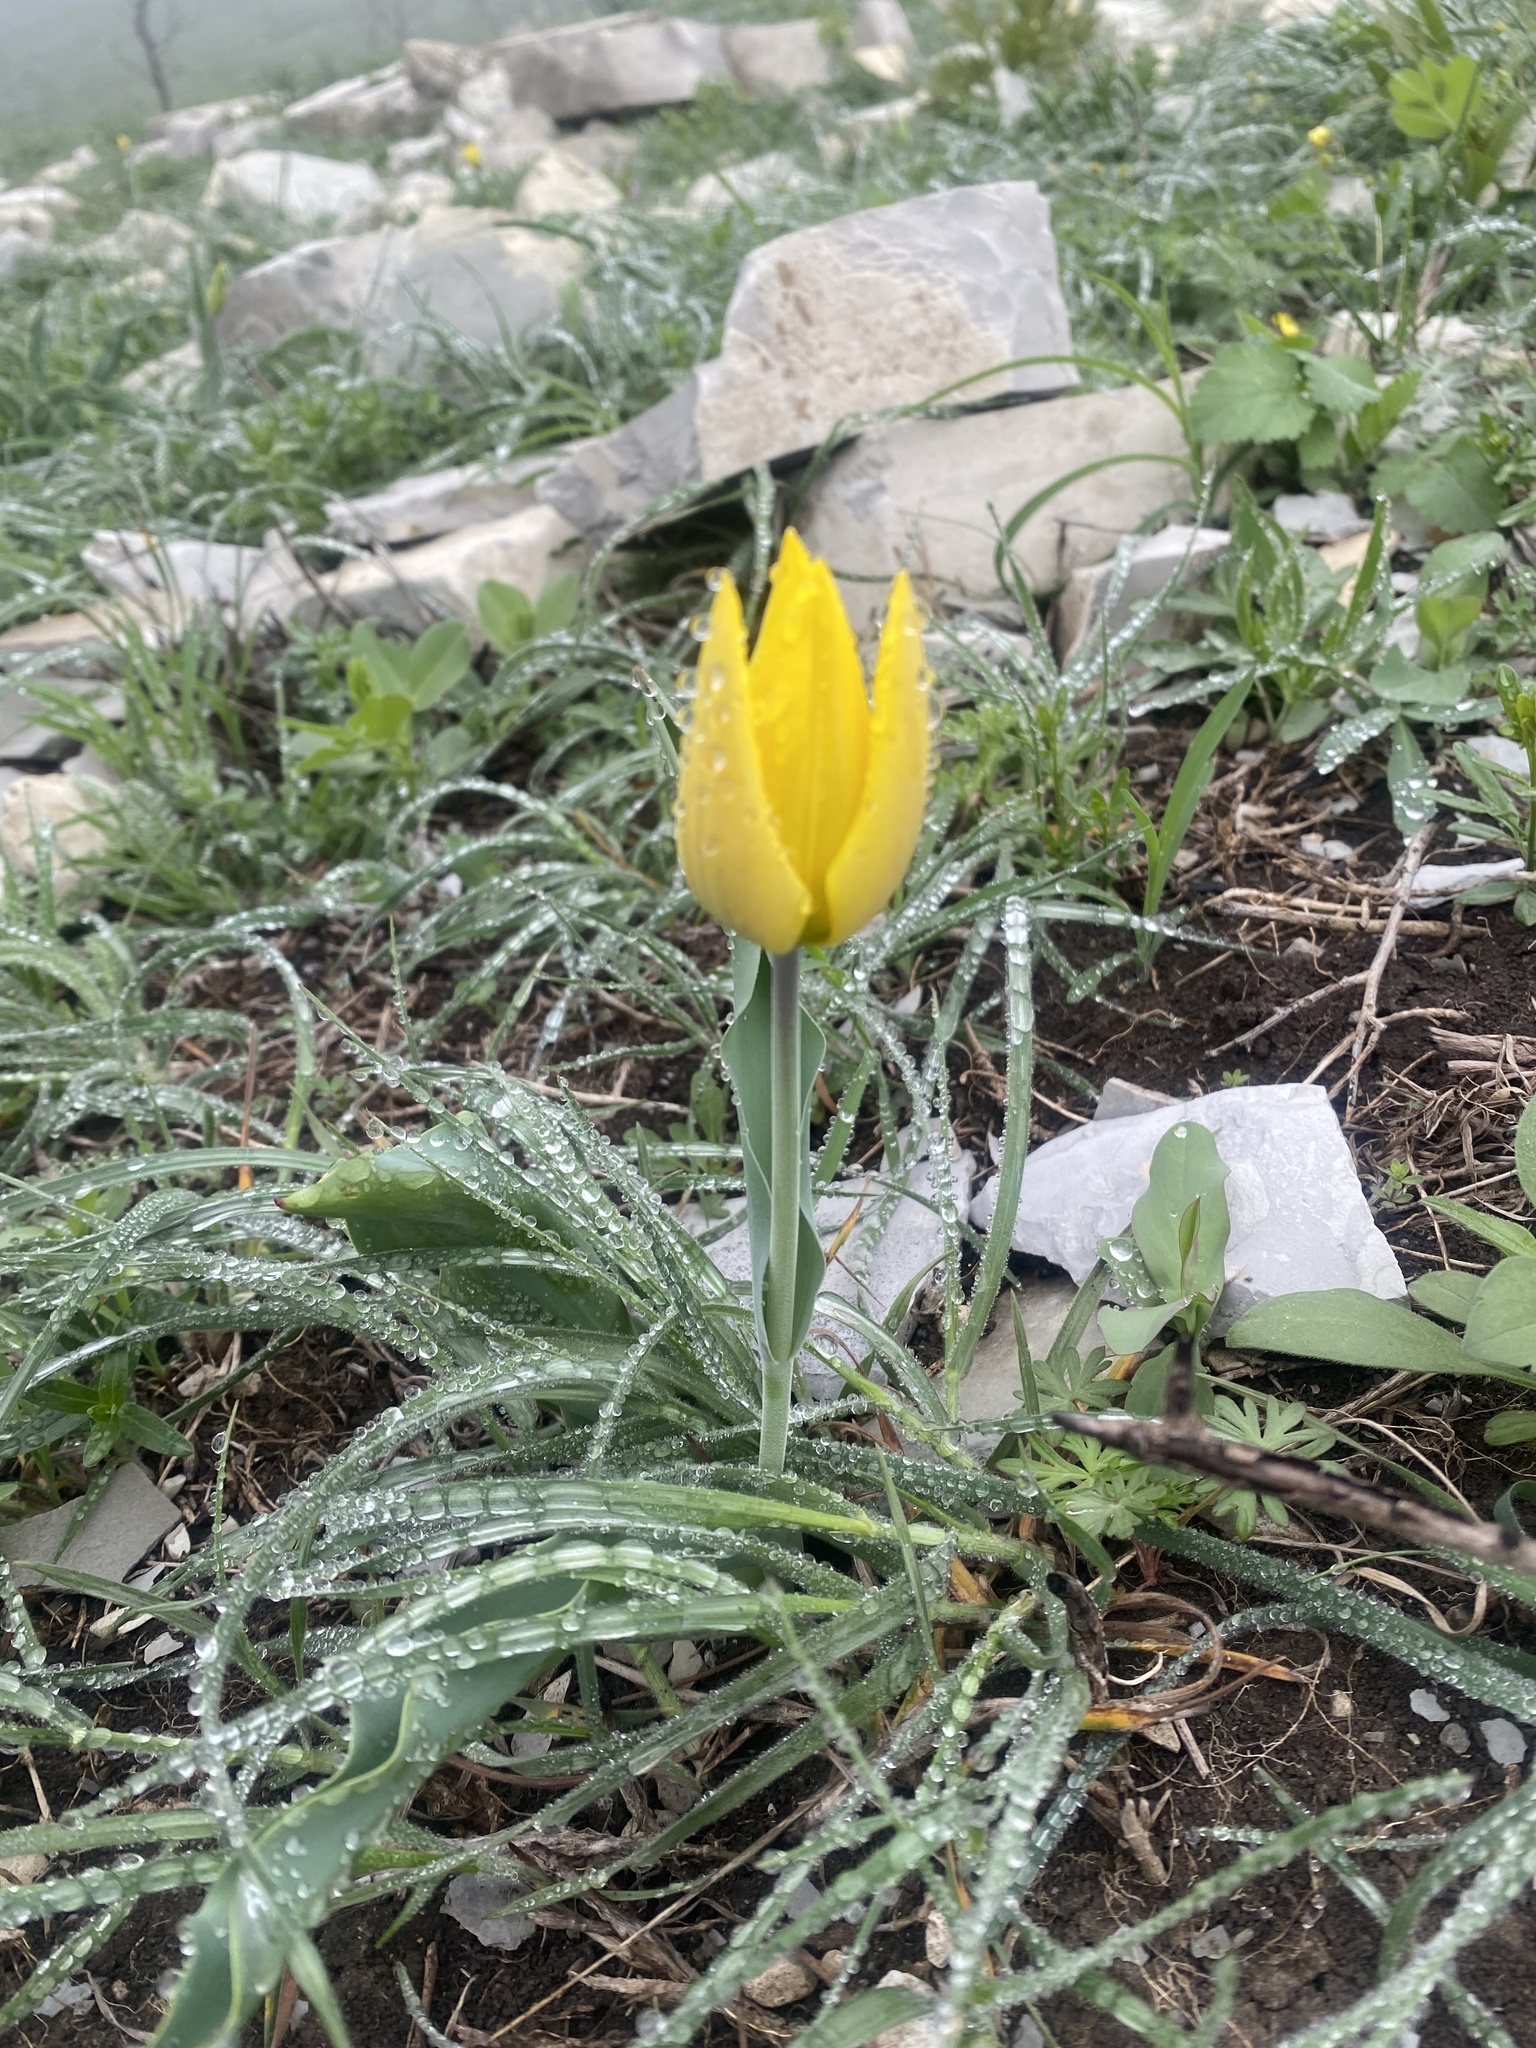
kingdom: Plantae
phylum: Tracheophyta
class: Liliopsida
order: Liliales
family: Liliaceae
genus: Tulipa
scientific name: Tulipa suaveolens
